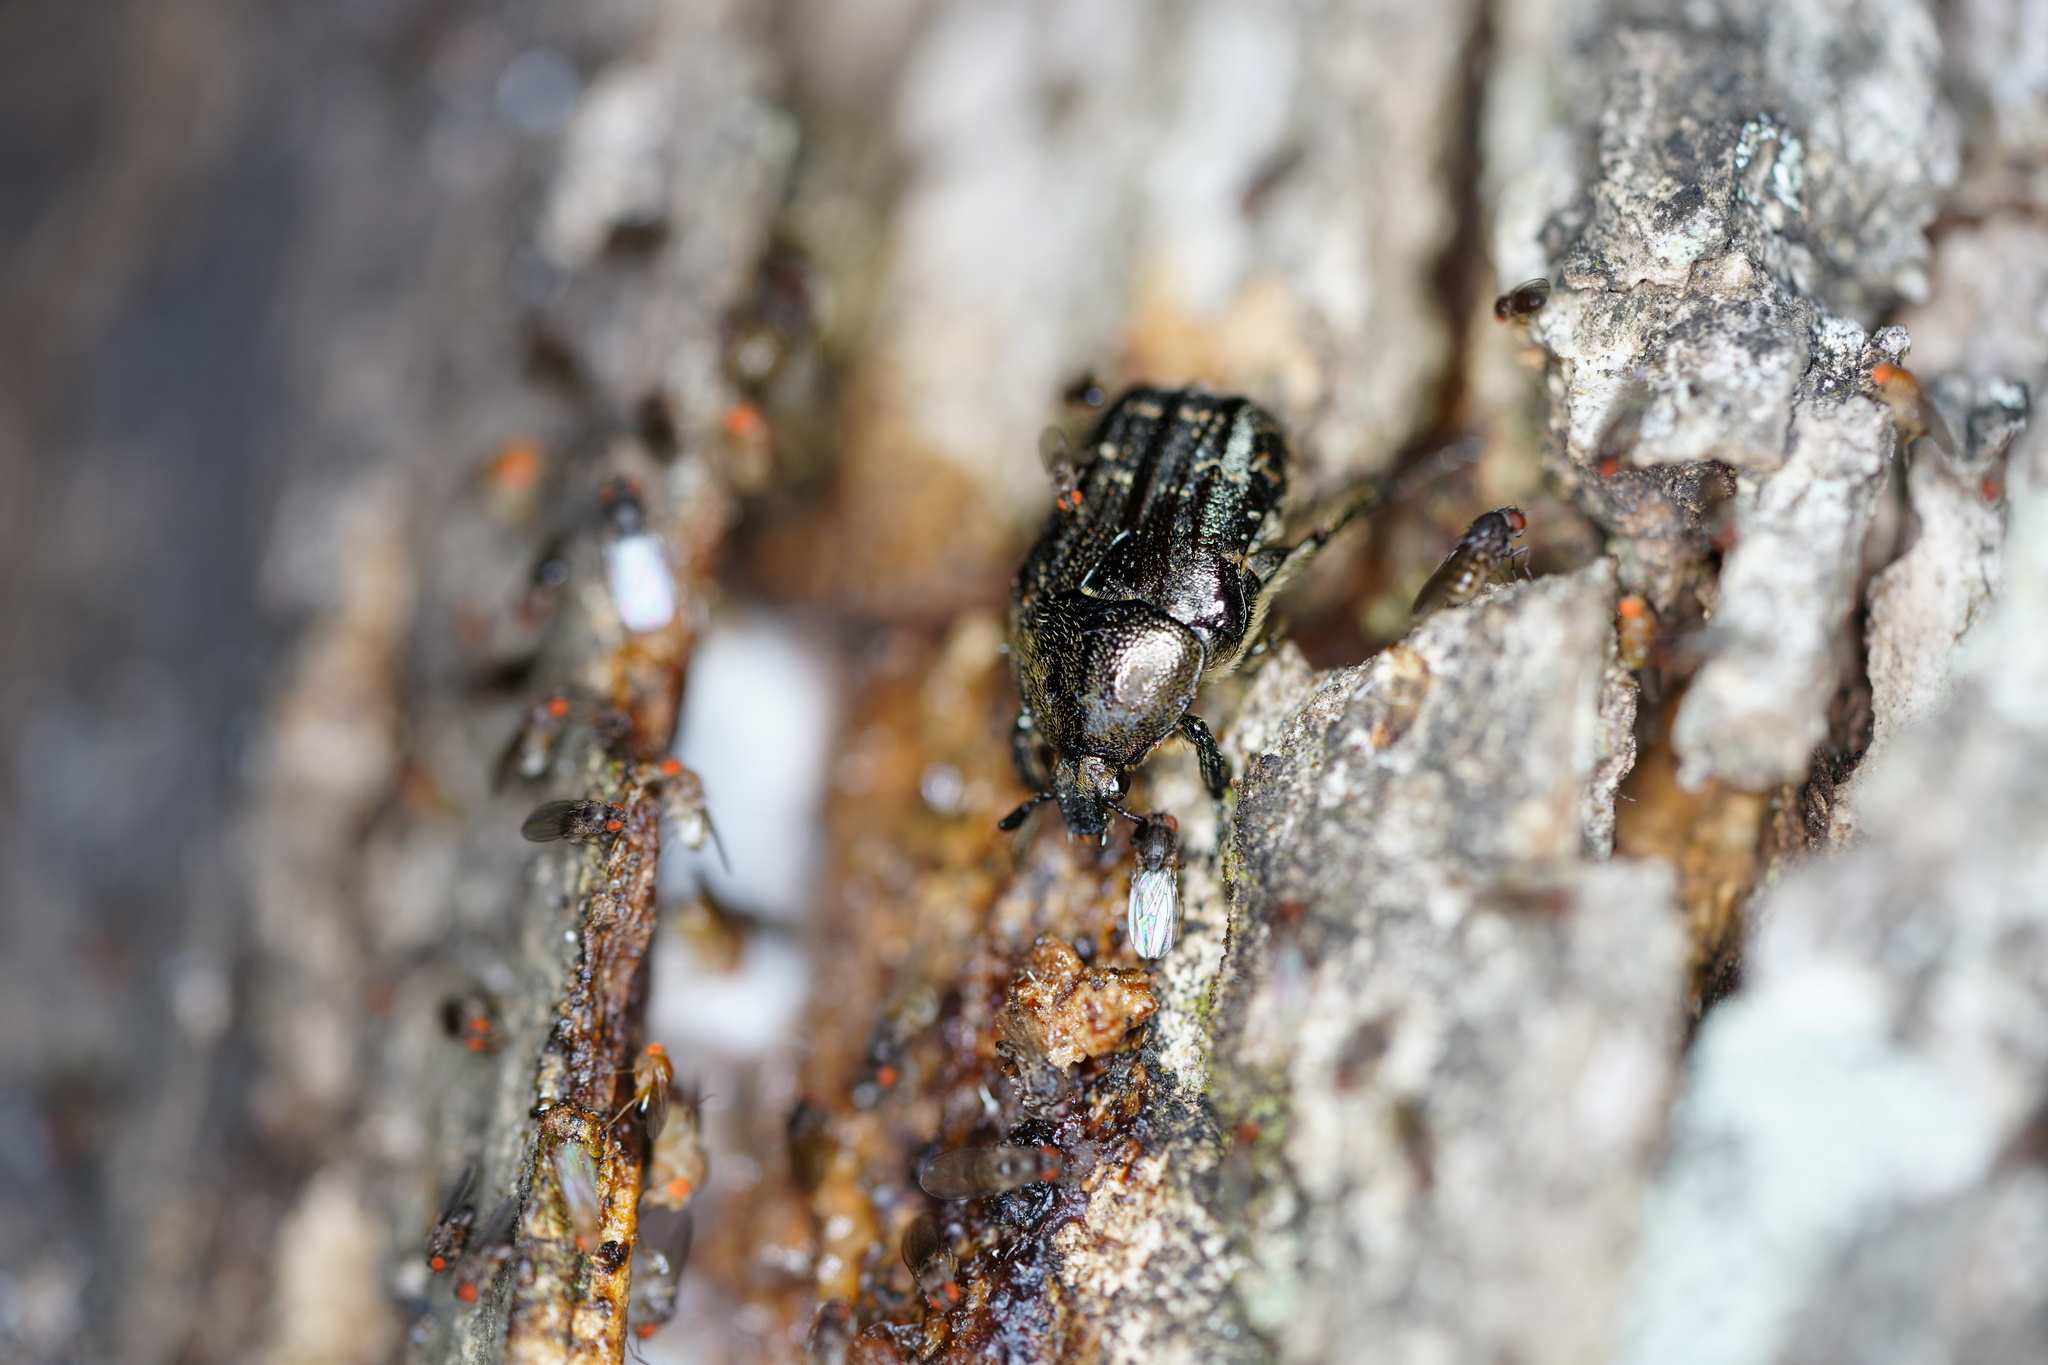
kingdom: Animalia
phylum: Arthropoda
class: Insecta
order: Coleoptera
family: Scarabaeidae
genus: Euphoria
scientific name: Euphoria sepulcralis
